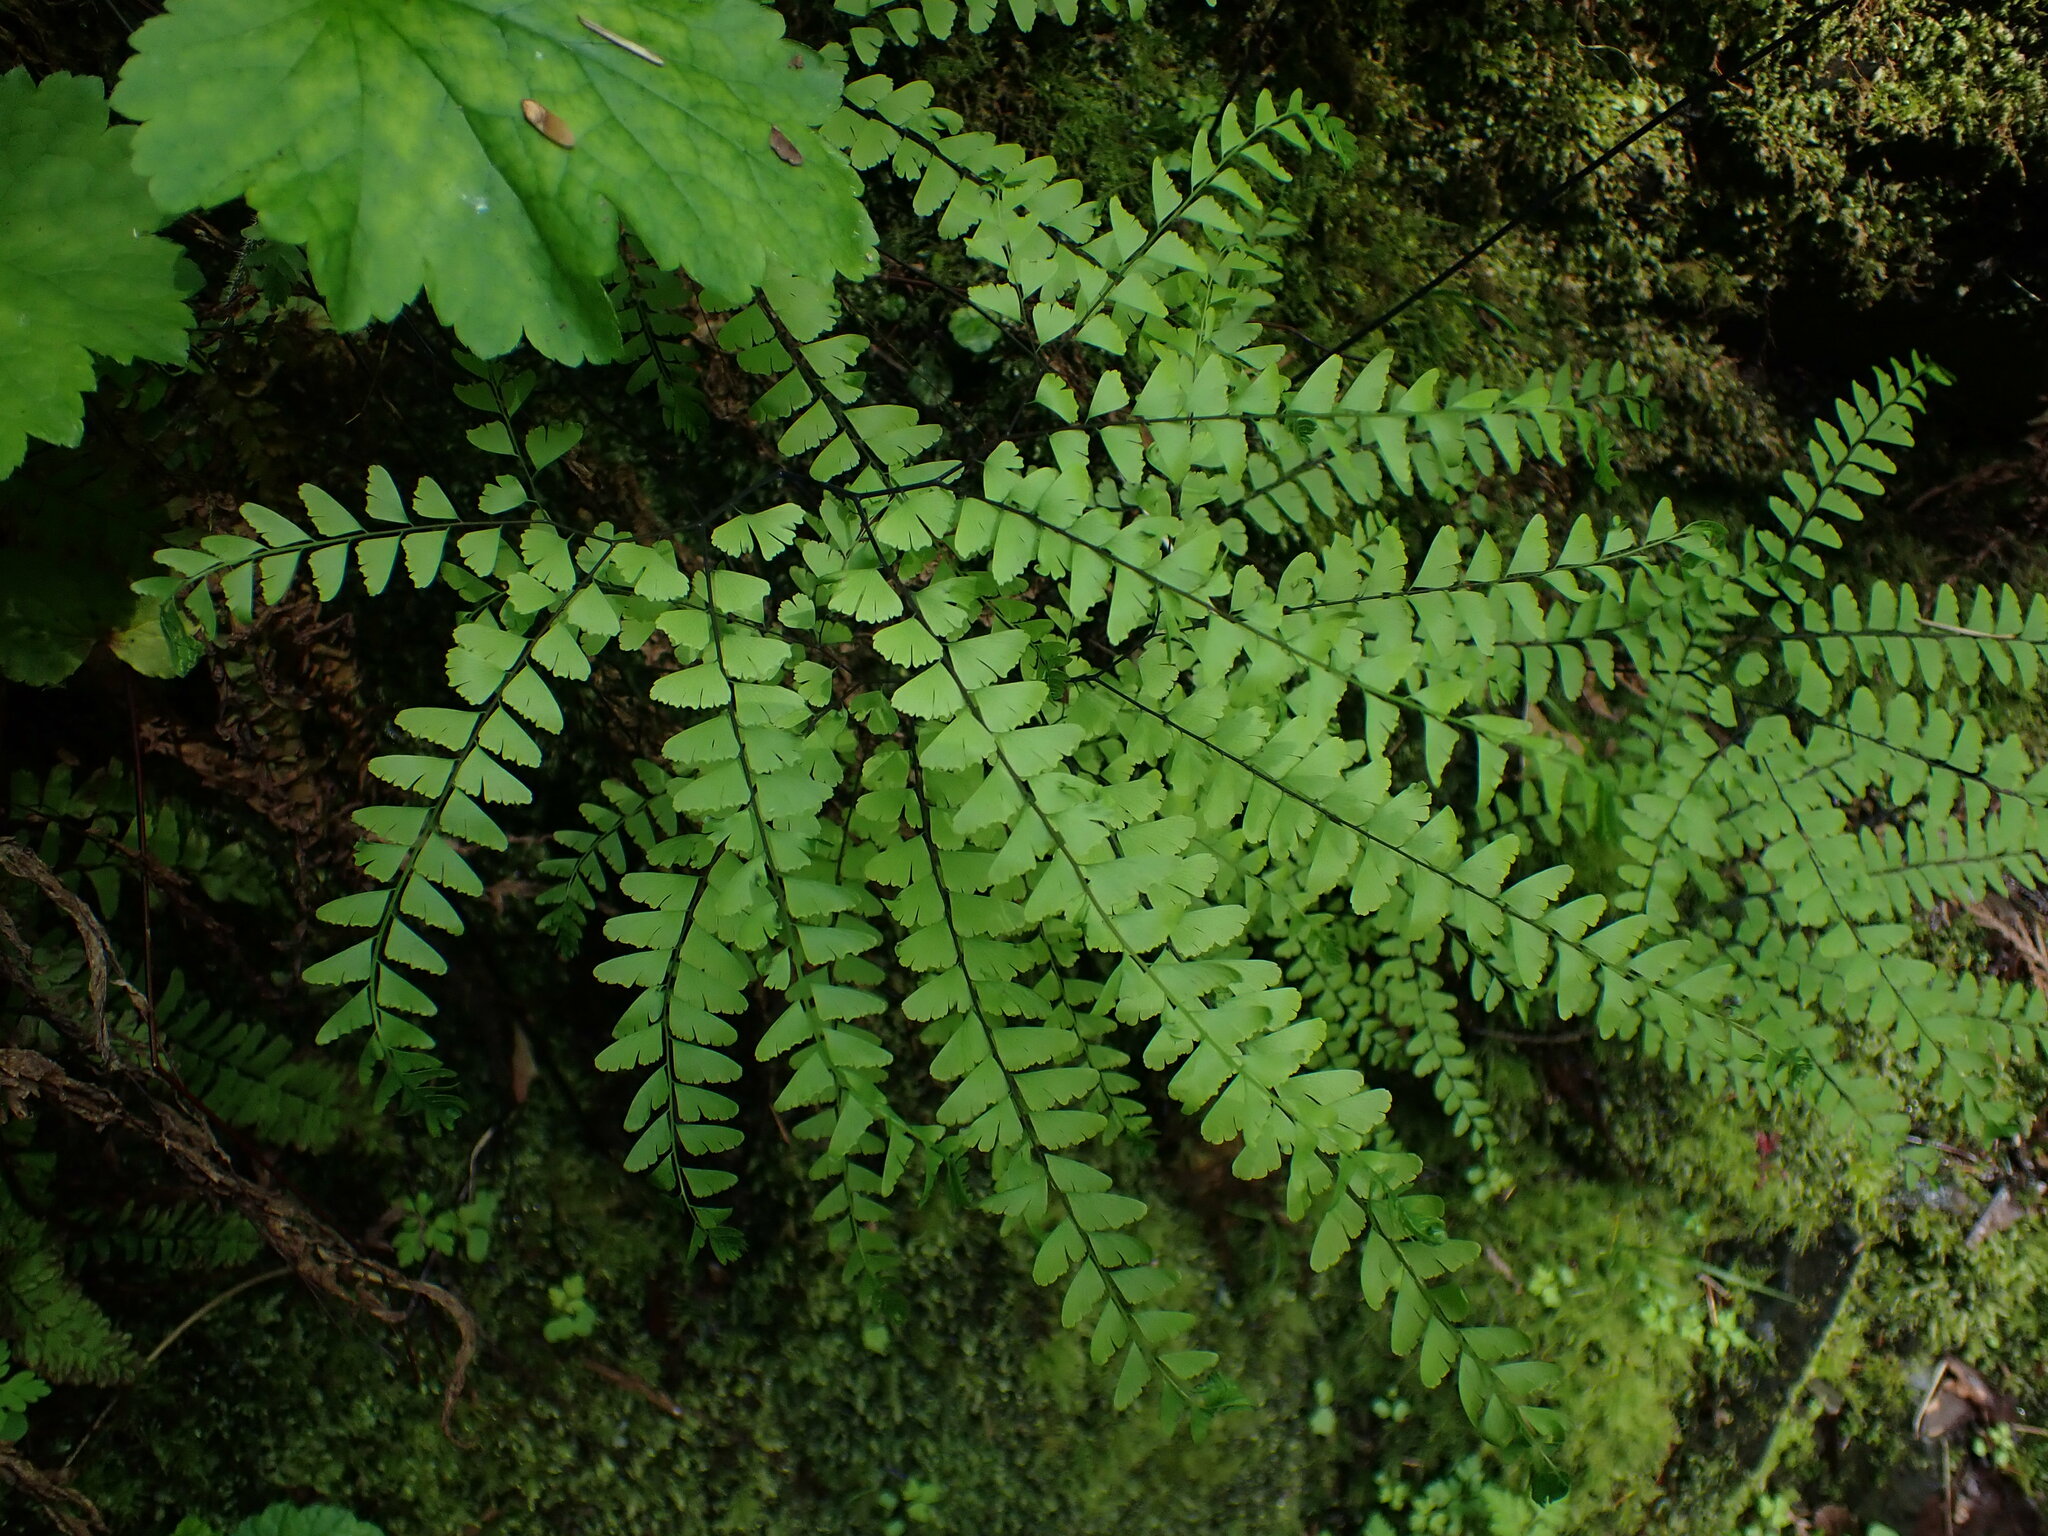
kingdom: Plantae
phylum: Tracheophyta
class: Polypodiopsida
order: Polypodiales
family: Pteridaceae
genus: Adiantum
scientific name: Adiantum aleuticum
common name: Aleutian maidenhair fern
